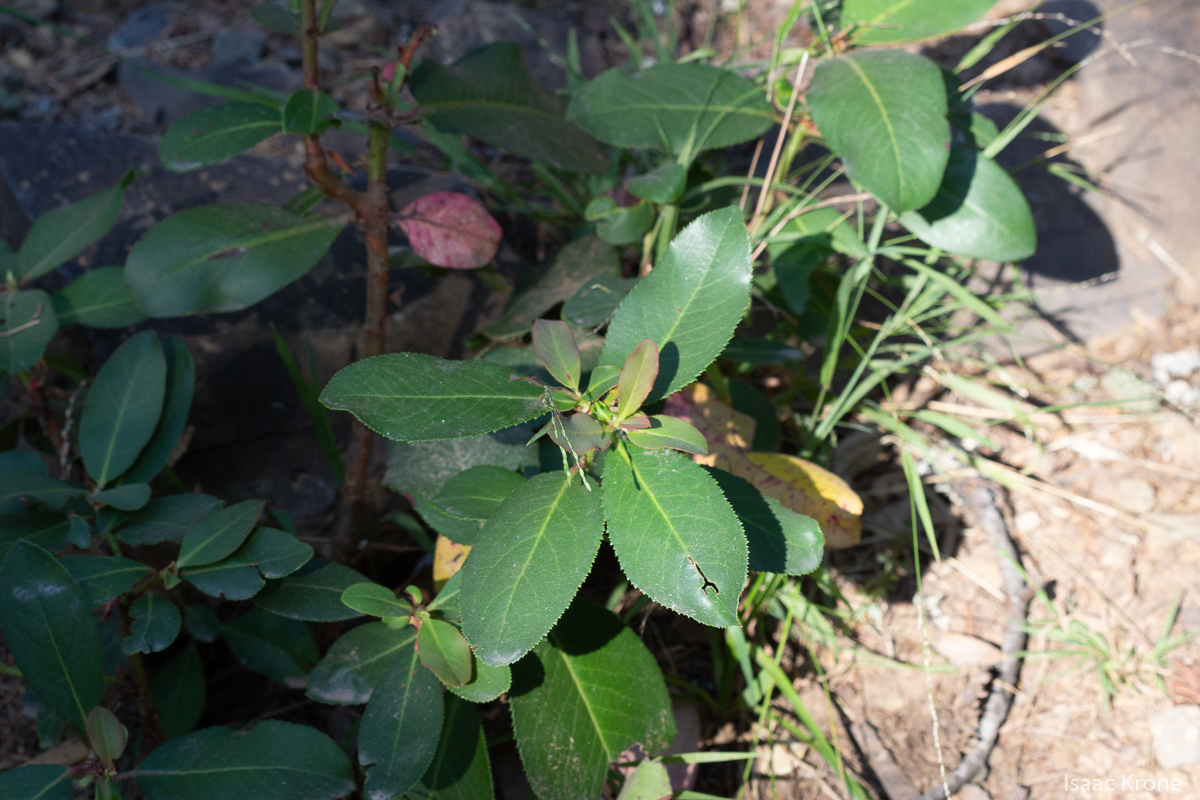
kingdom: Plantae
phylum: Tracheophyta
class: Magnoliopsida
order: Ericales
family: Ericaceae
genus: Arbutus
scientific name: Arbutus menziesii
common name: Pacific madrone
